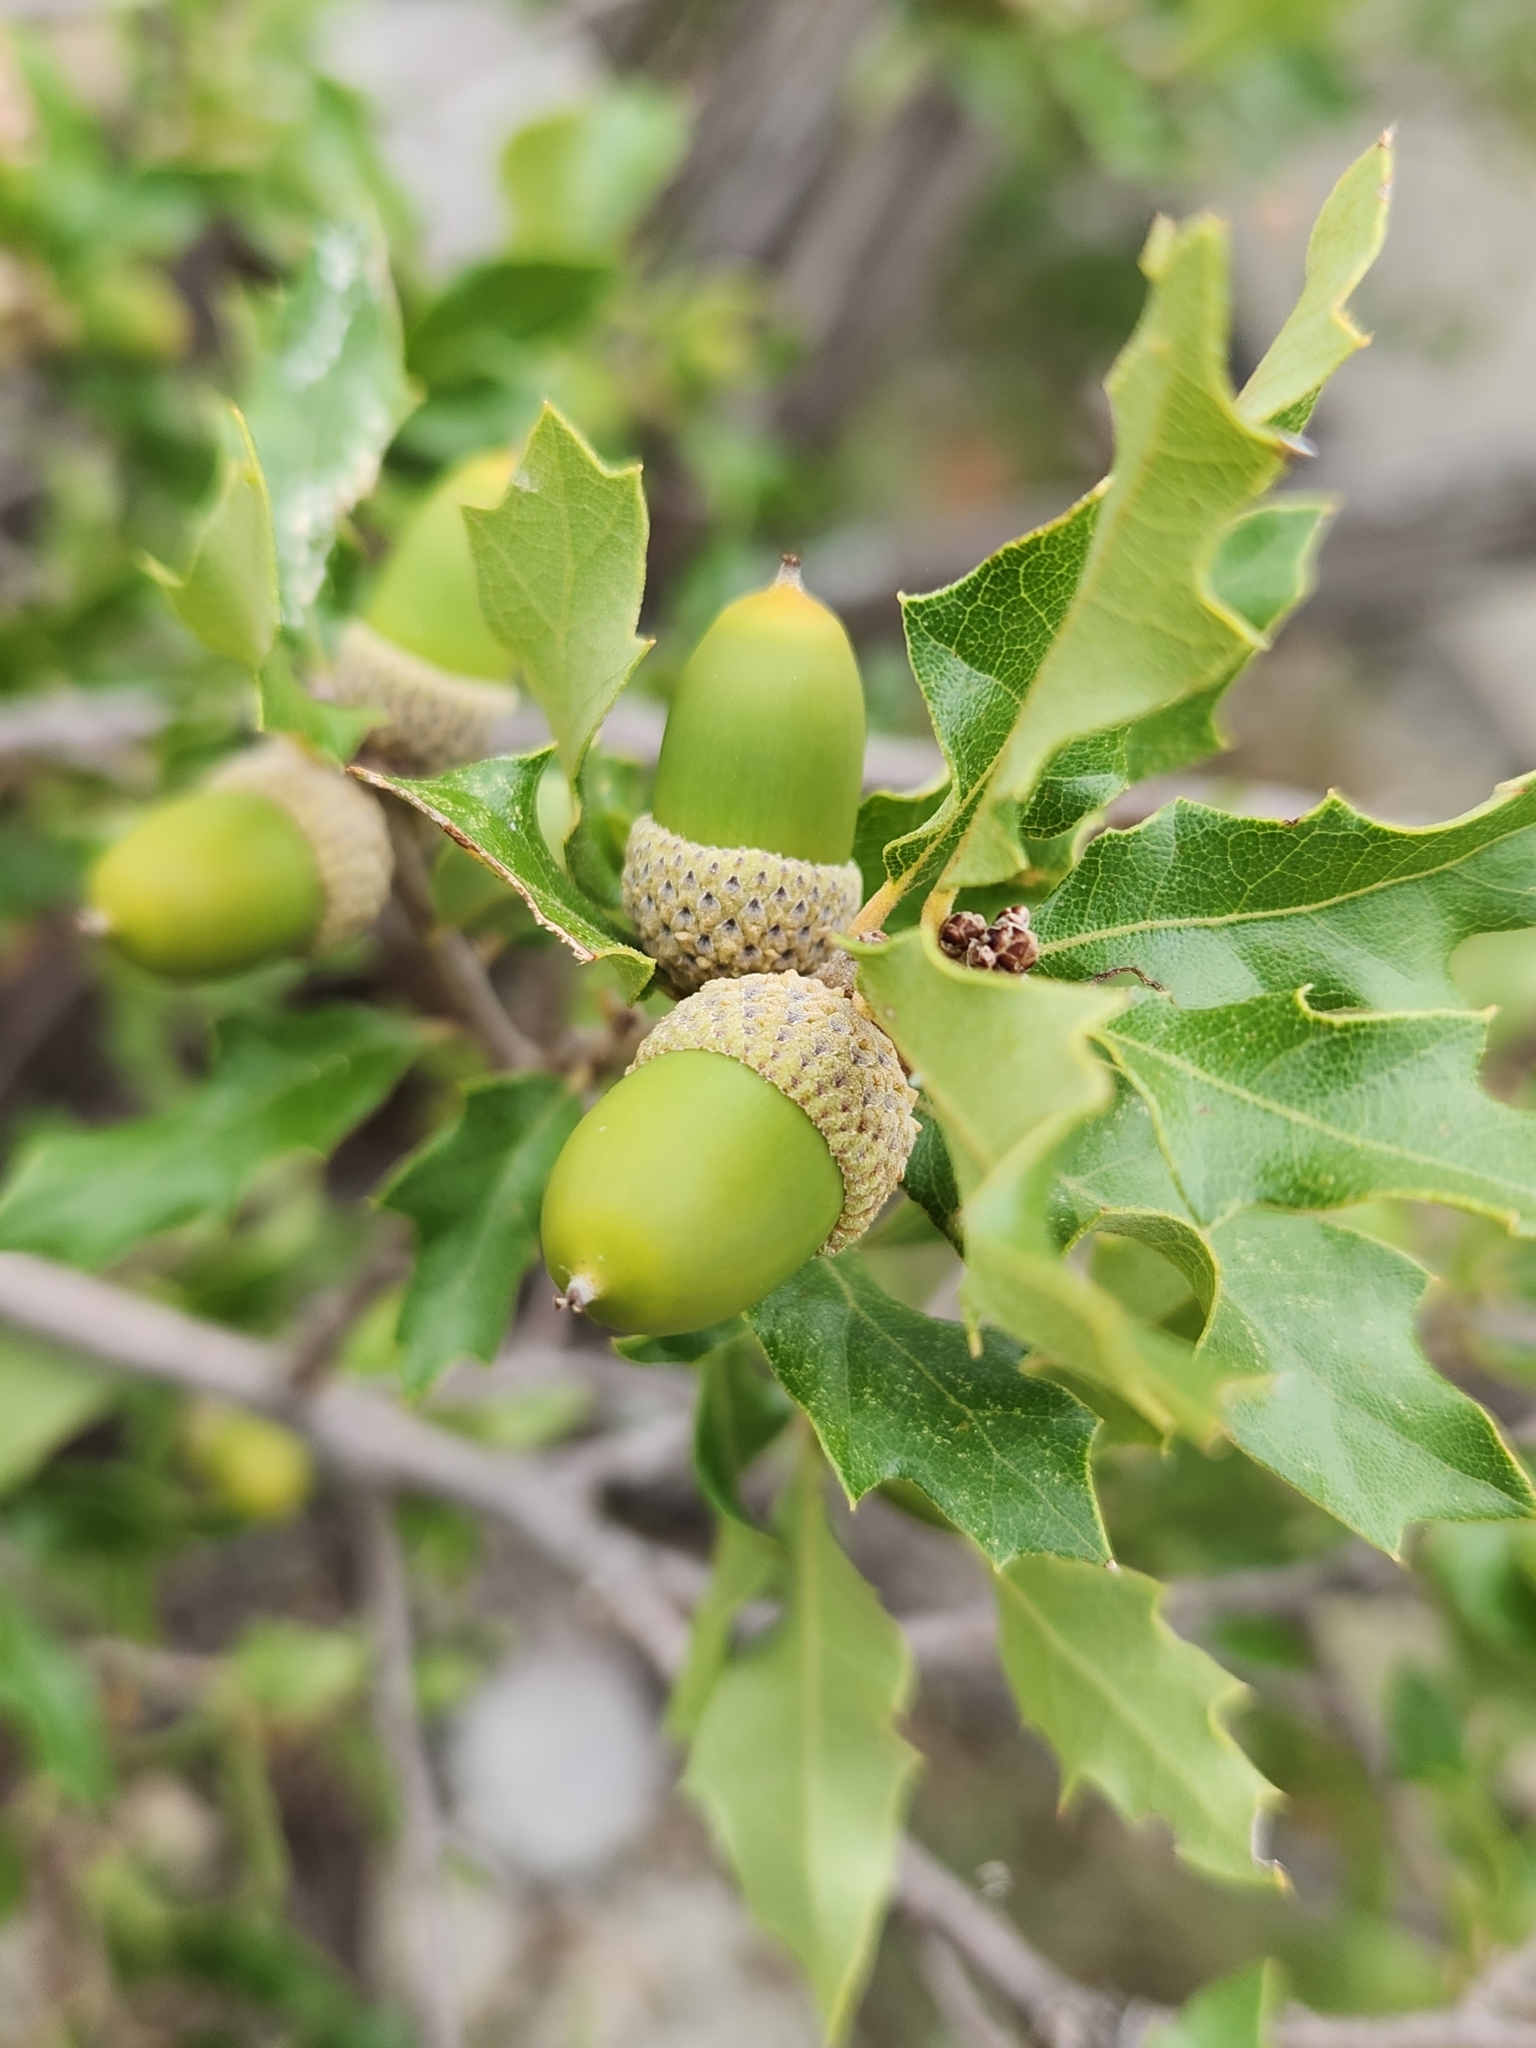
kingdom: Plantae
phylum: Tracheophyta
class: Magnoliopsida
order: Fagales
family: Fagaceae
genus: Quercus
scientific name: Quercus vaseyana
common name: Sandpaper oak
